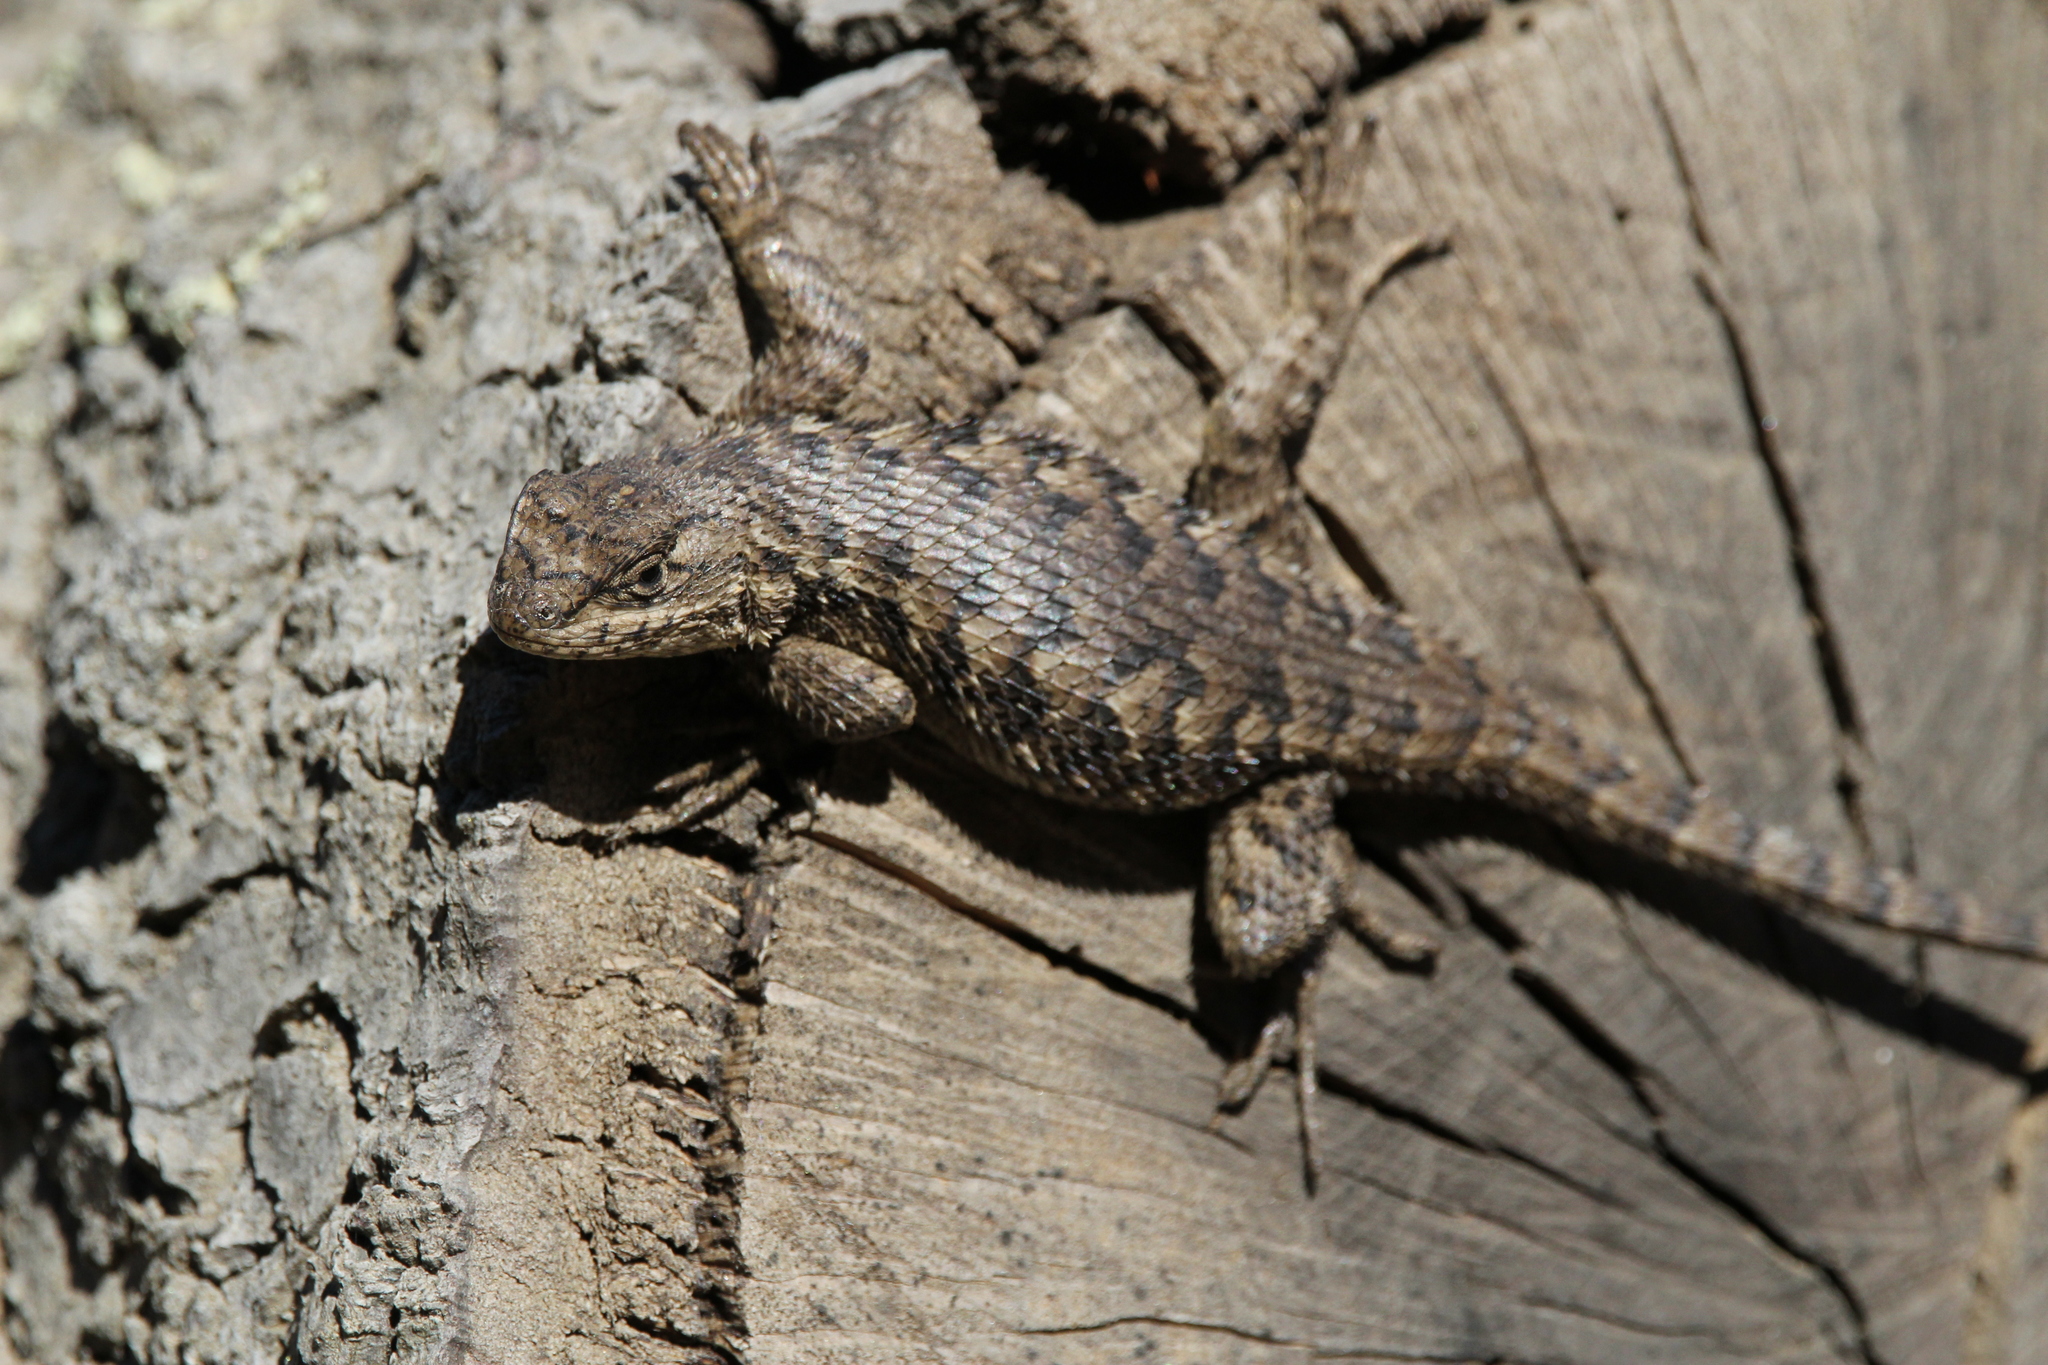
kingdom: Animalia
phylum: Chordata
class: Squamata
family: Phrynosomatidae
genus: Sceloporus
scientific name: Sceloporus occidentalis
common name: Western fence lizard
